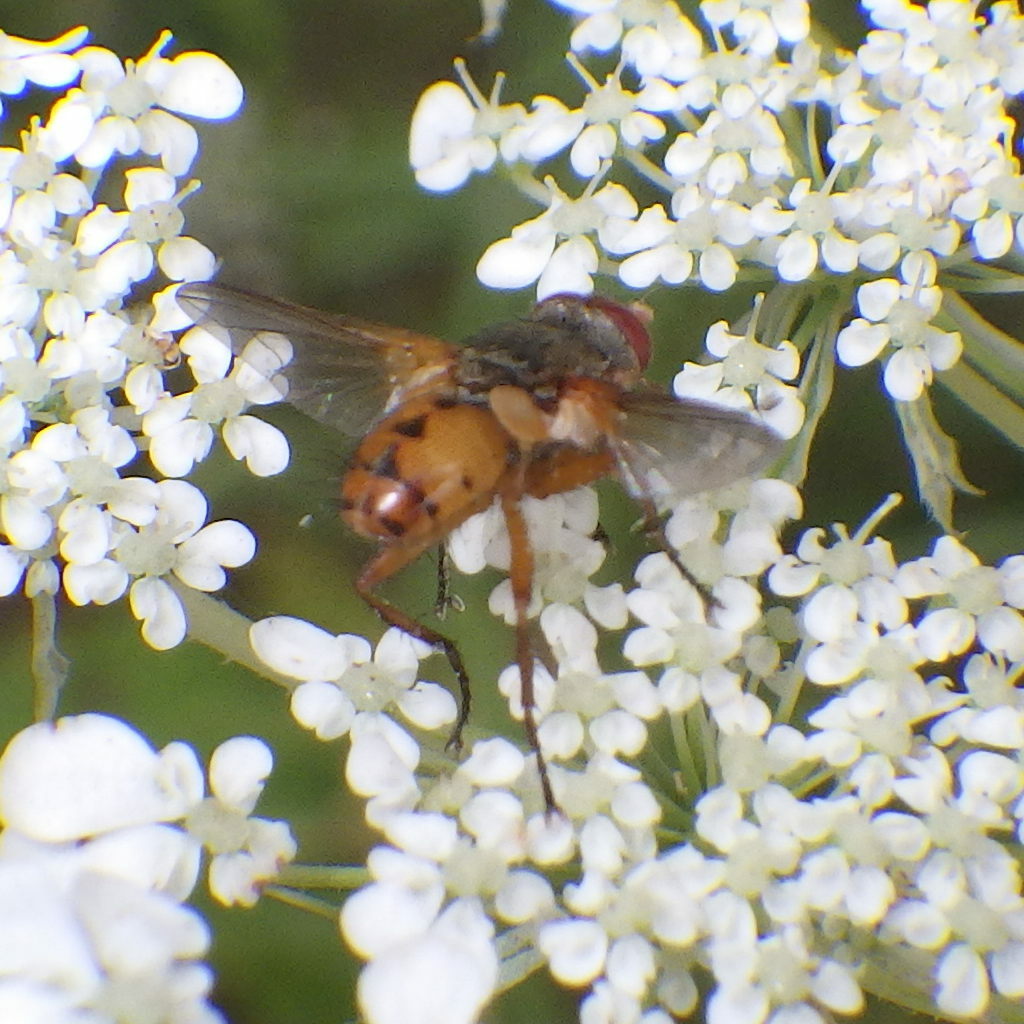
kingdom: Animalia
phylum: Arthropoda
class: Insecta
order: Diptera
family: Tachinidae
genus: Euclytia
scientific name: Euclytia flava
